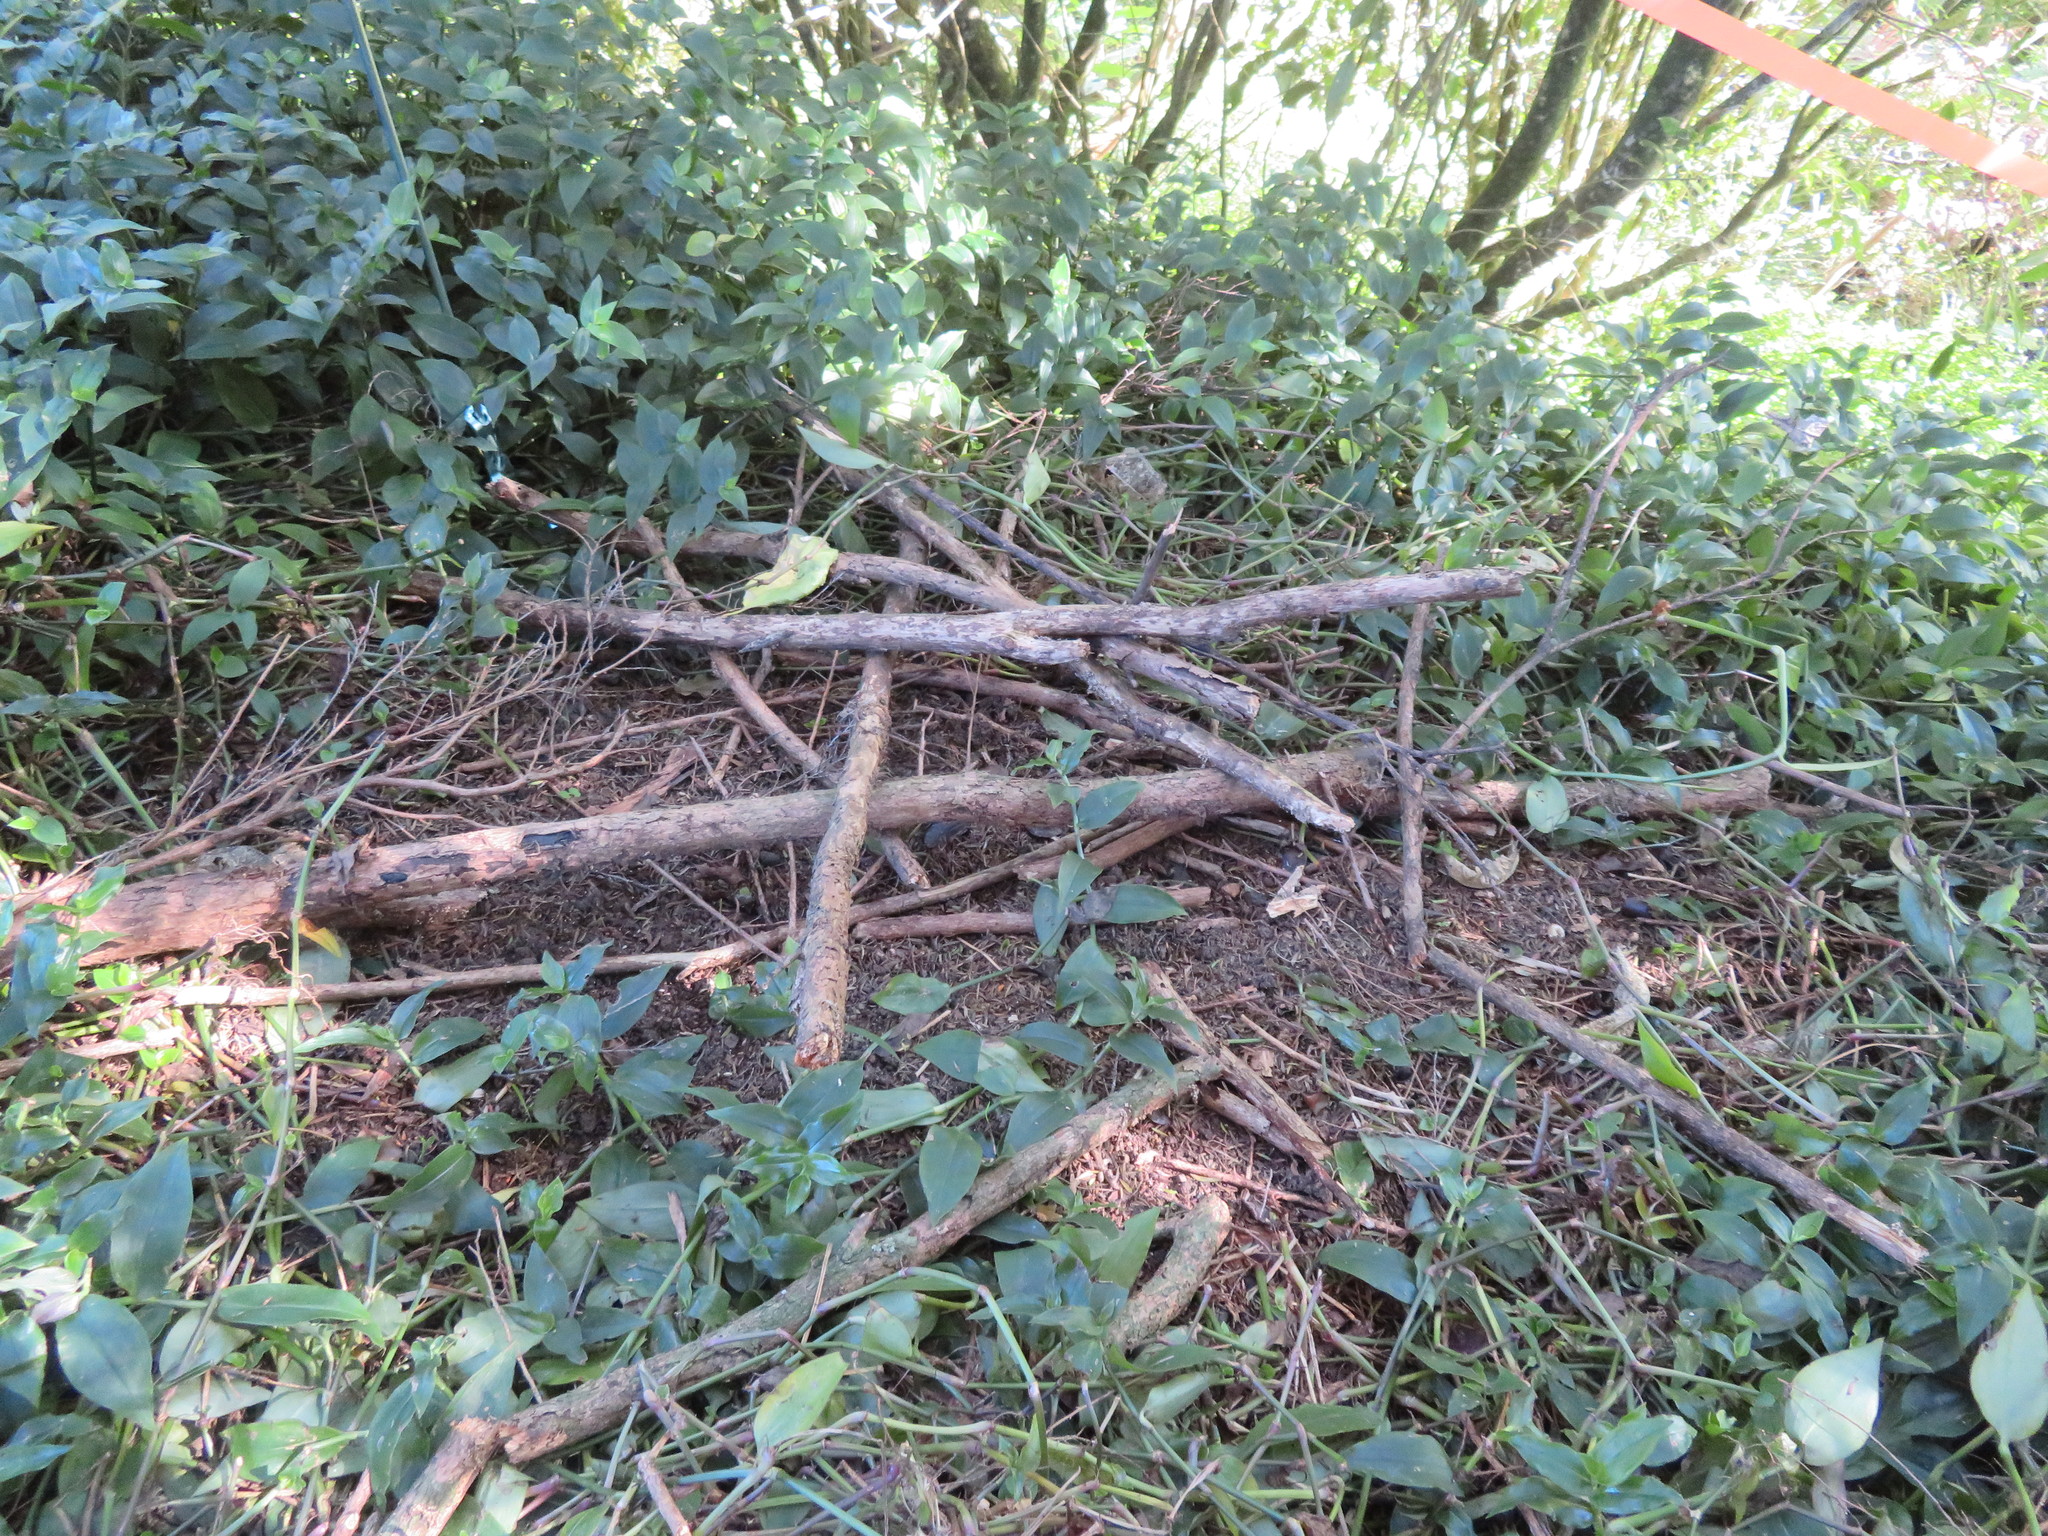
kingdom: Plantae
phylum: Tracheophyta
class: Liliopsida
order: Commelinales
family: Commelinaceae
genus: Tradescantia
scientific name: Tradescantia fluminensis
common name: Wandering-jew
